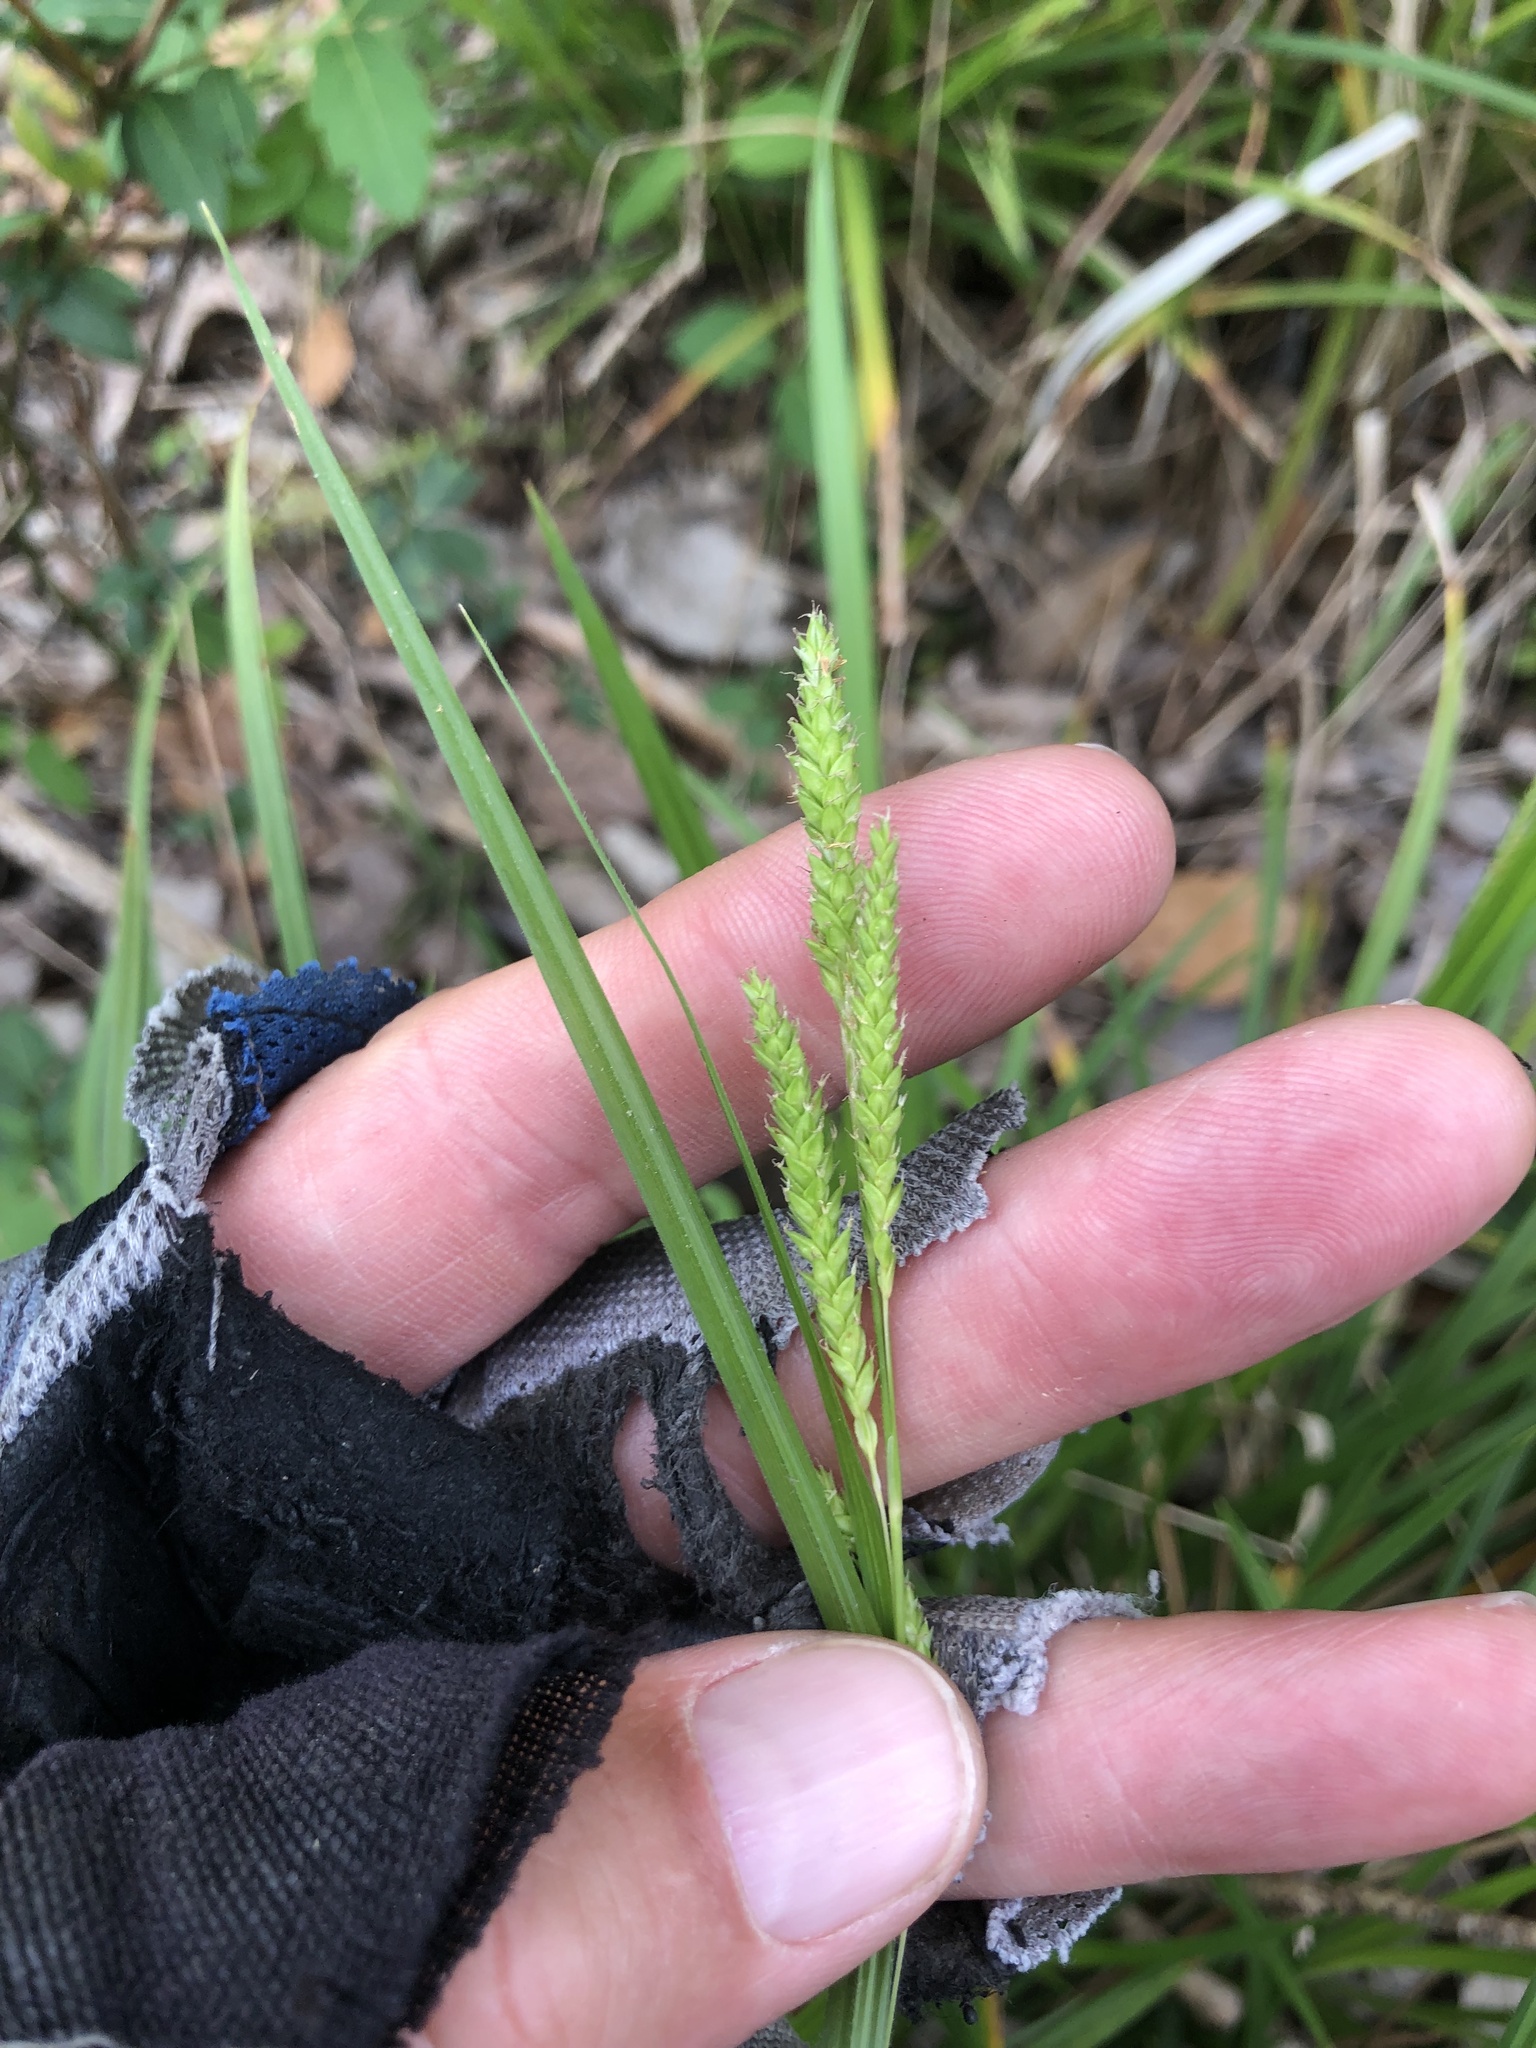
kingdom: Plantae
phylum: Tracheophyta
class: Liliopsida
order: Poales
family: Cyperaceae
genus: Carex
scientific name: Carex oxylepis
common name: Sharpscale sedge
